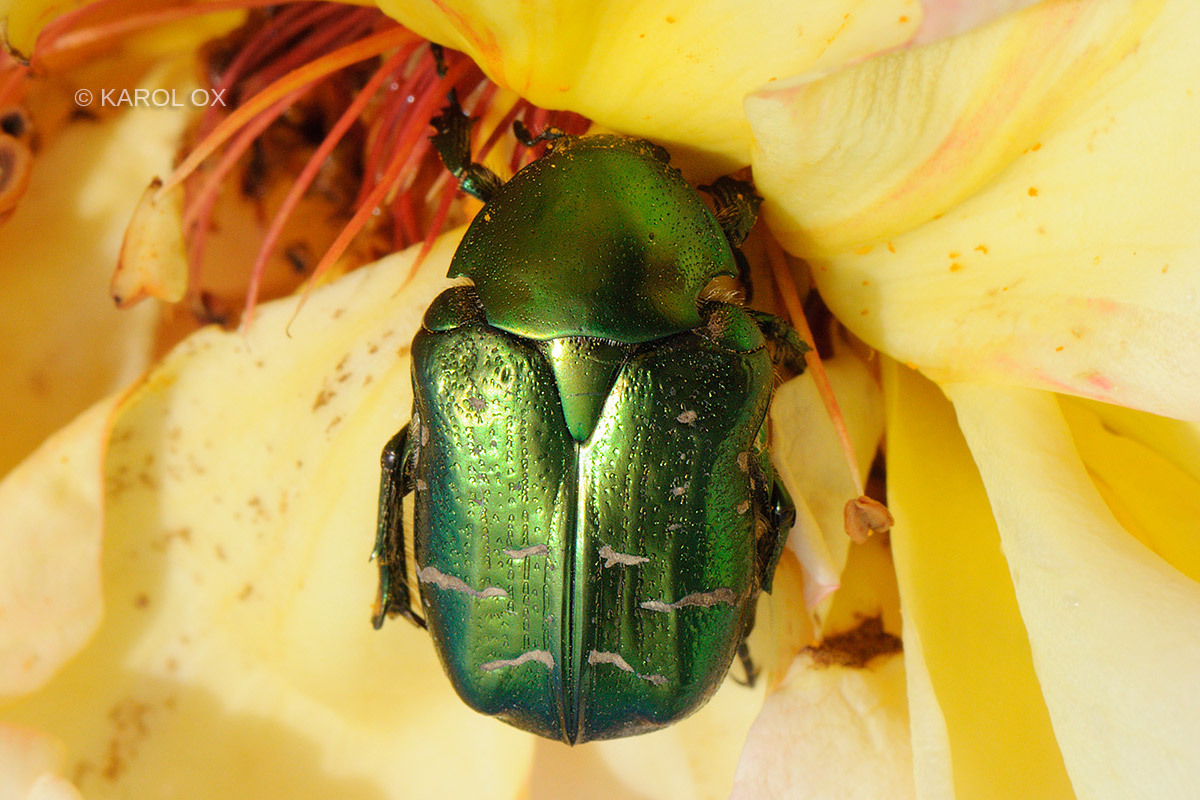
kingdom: Animalia
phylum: Arthropoda
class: Insecta
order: Coleoptera
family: Scarabaeidae
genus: Cetonia
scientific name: Cetonia aurata
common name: Rose chafer
